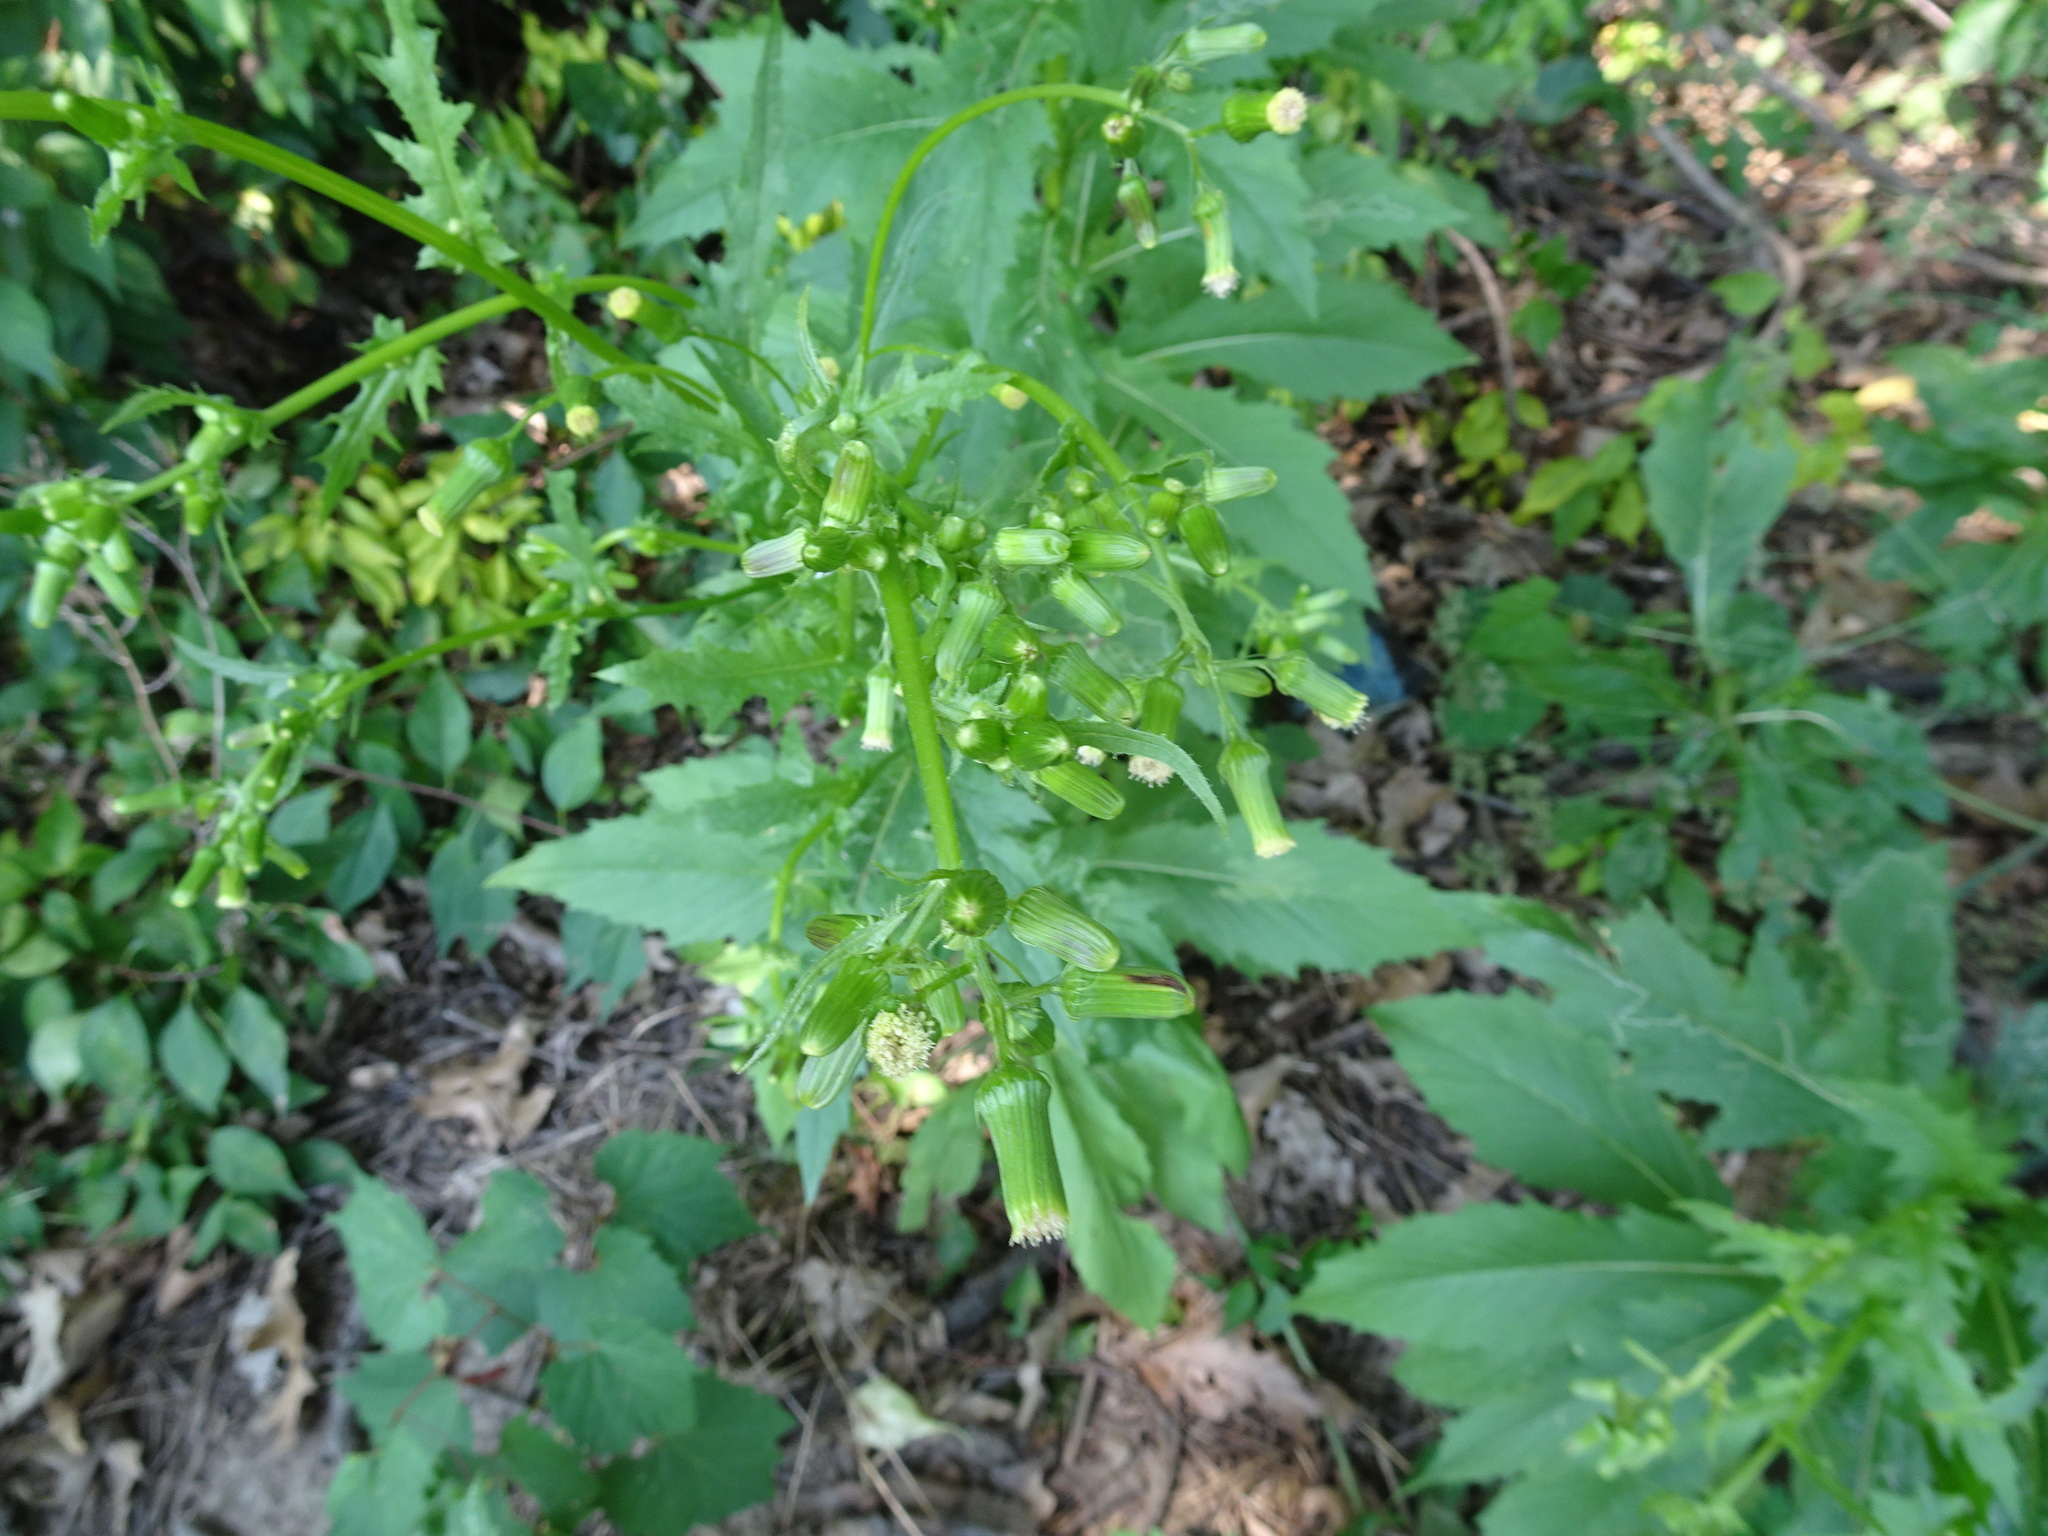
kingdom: Plantae
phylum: Tracheophyta
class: Magnoliopsida
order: Asterales
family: Asteraceae
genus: Erechtites
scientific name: Erechtites hieraciifolius
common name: American burnweed
